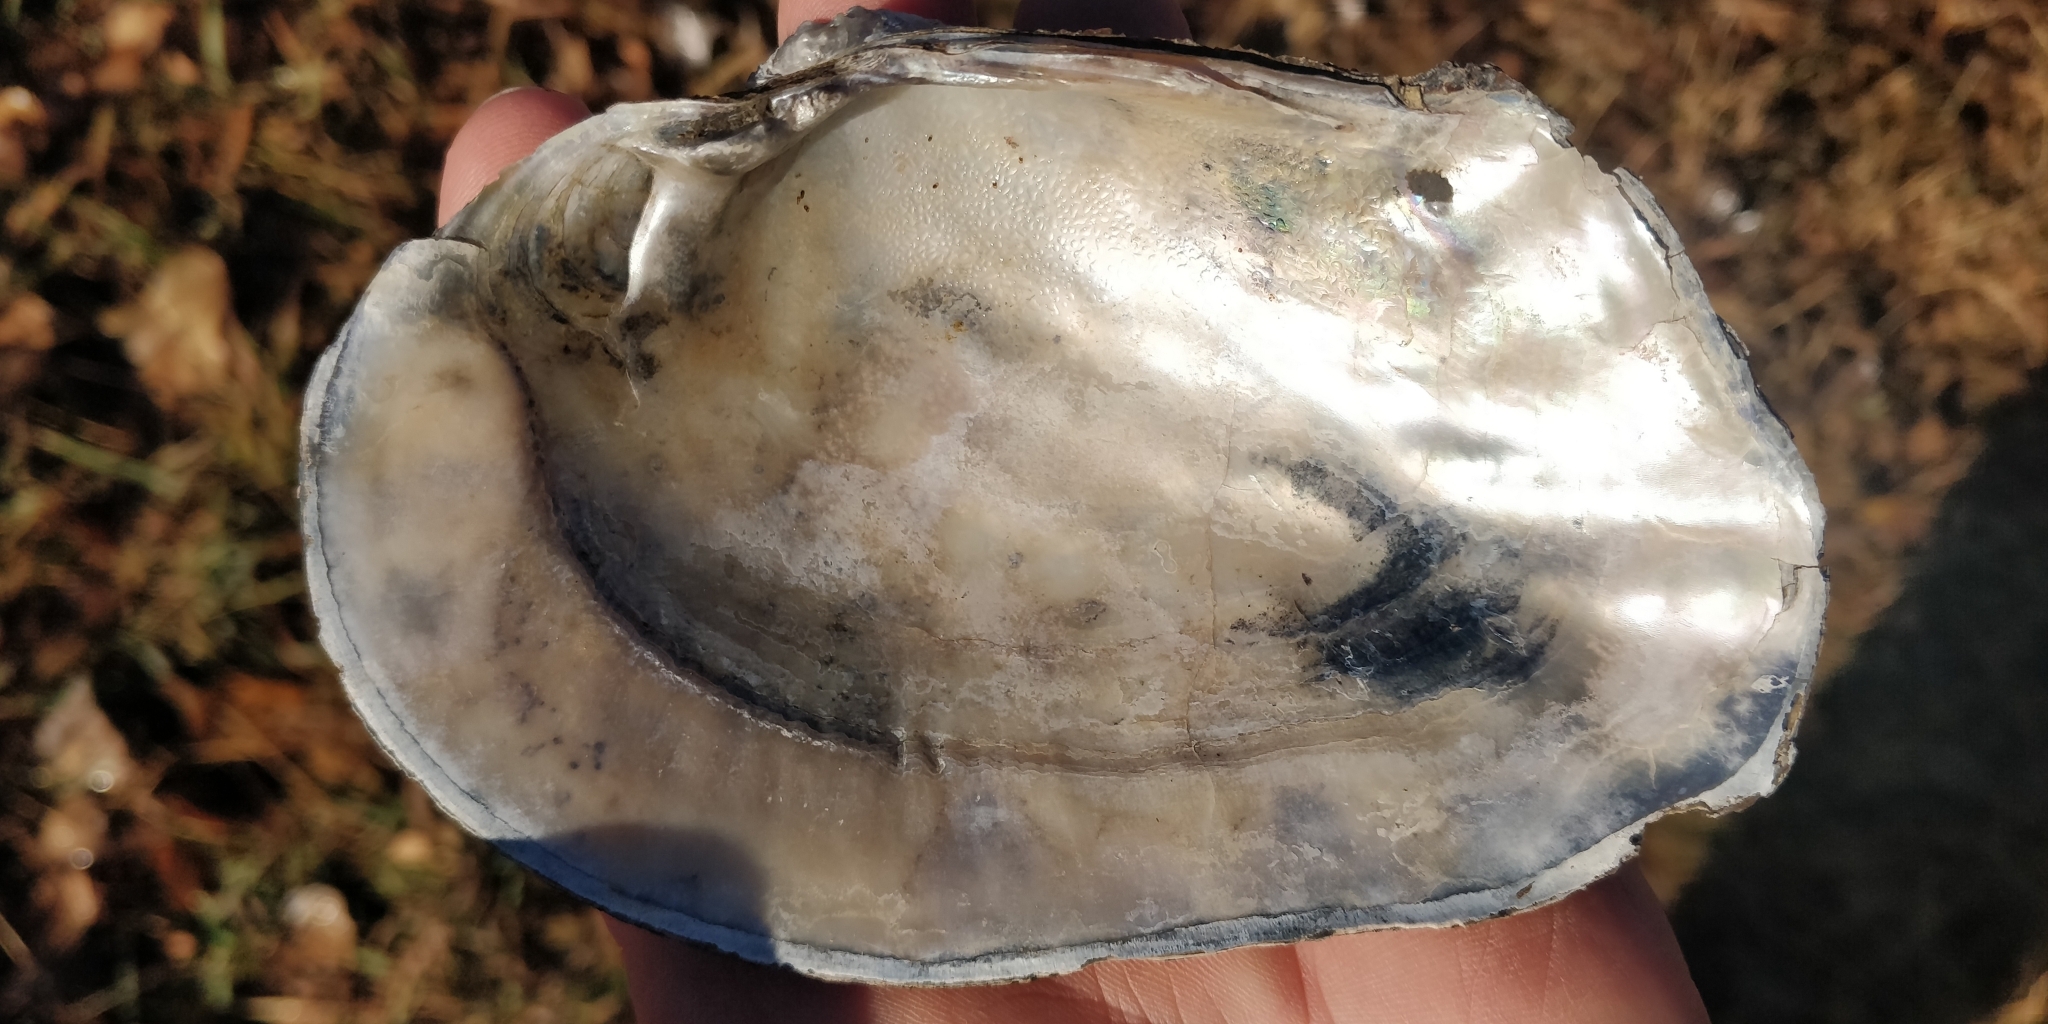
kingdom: Animalia
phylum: Mollusca
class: Bivalvia
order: Unionida
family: Unionidae
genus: Arcidens
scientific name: Arcidens confragosus
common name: Rock pocketbook
